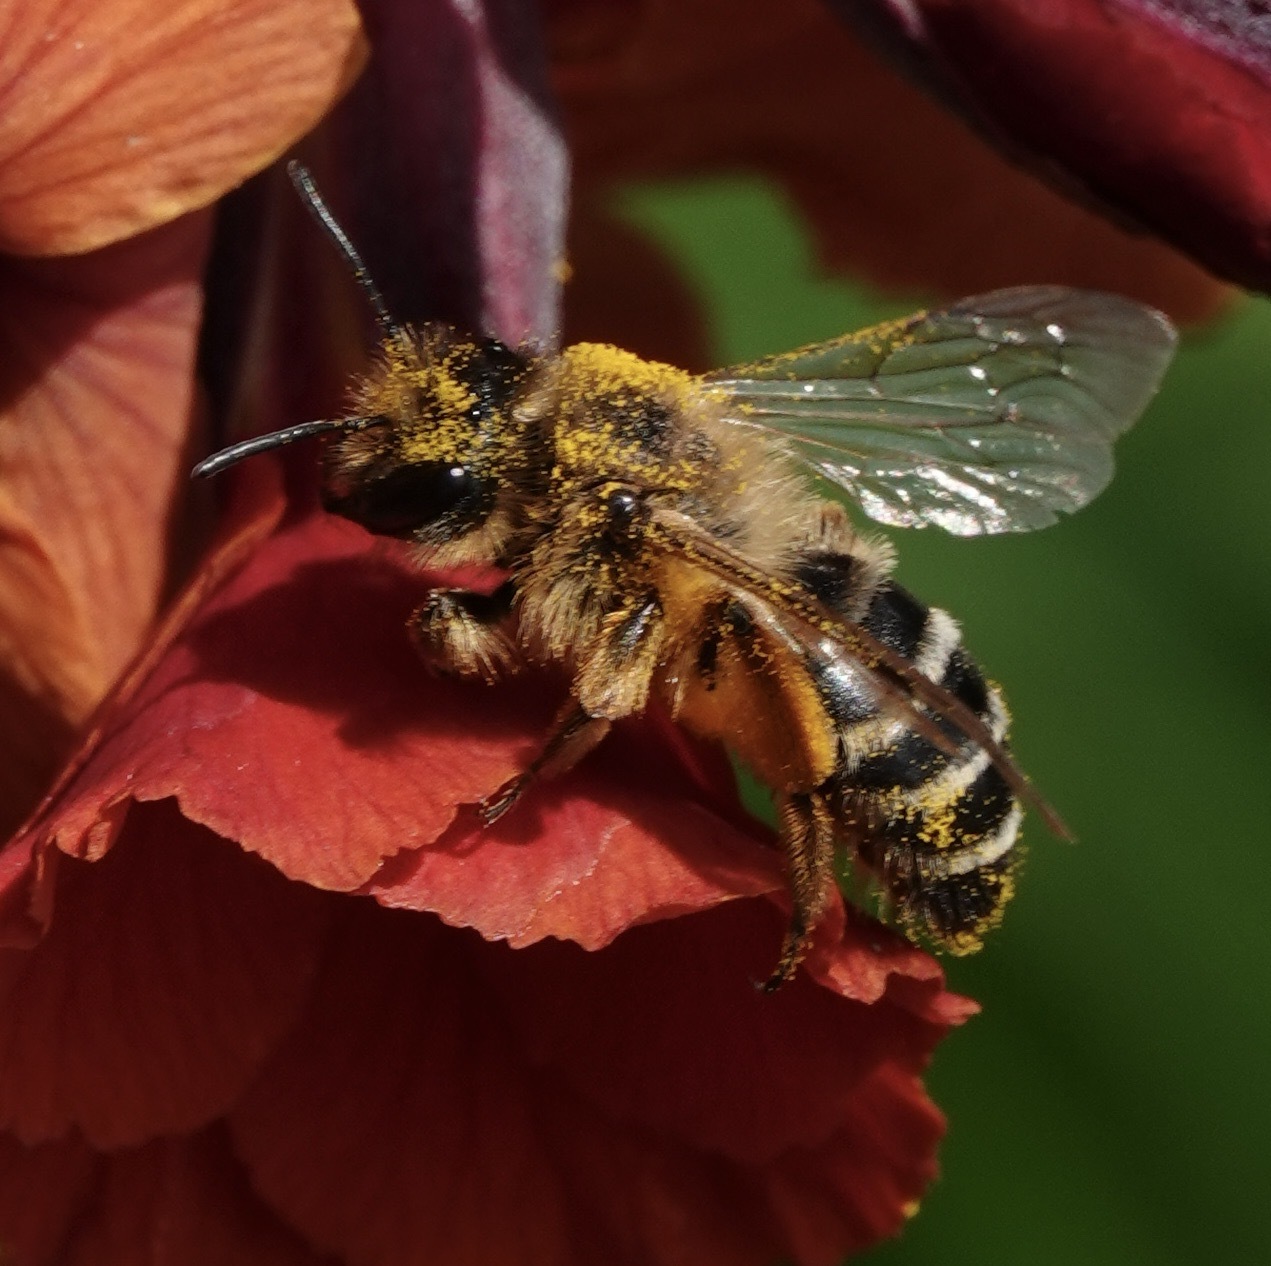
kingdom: Animalia
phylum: Arthropoda
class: Insecta
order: Hymenoptera
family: Andrenidae
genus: Andrena
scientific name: Andrena flavipes
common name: Yellow-legged mining bee
